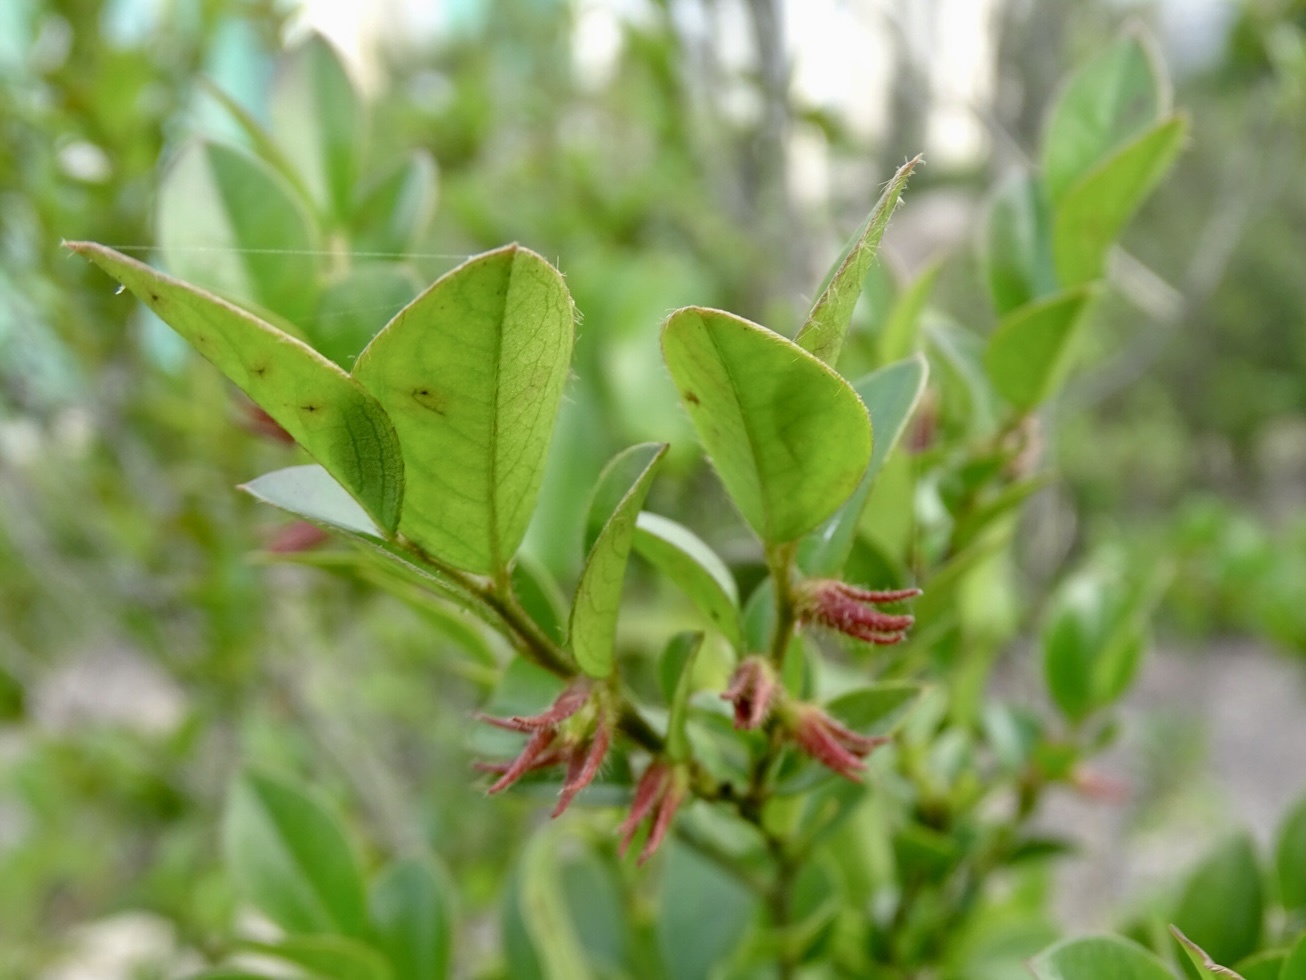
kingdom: Plantae
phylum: Tracheophyta
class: Magnoliopsida
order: Ericales
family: Ebenaceae
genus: Diospyros
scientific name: Diospyros vaccinioides
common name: Small persimmon
